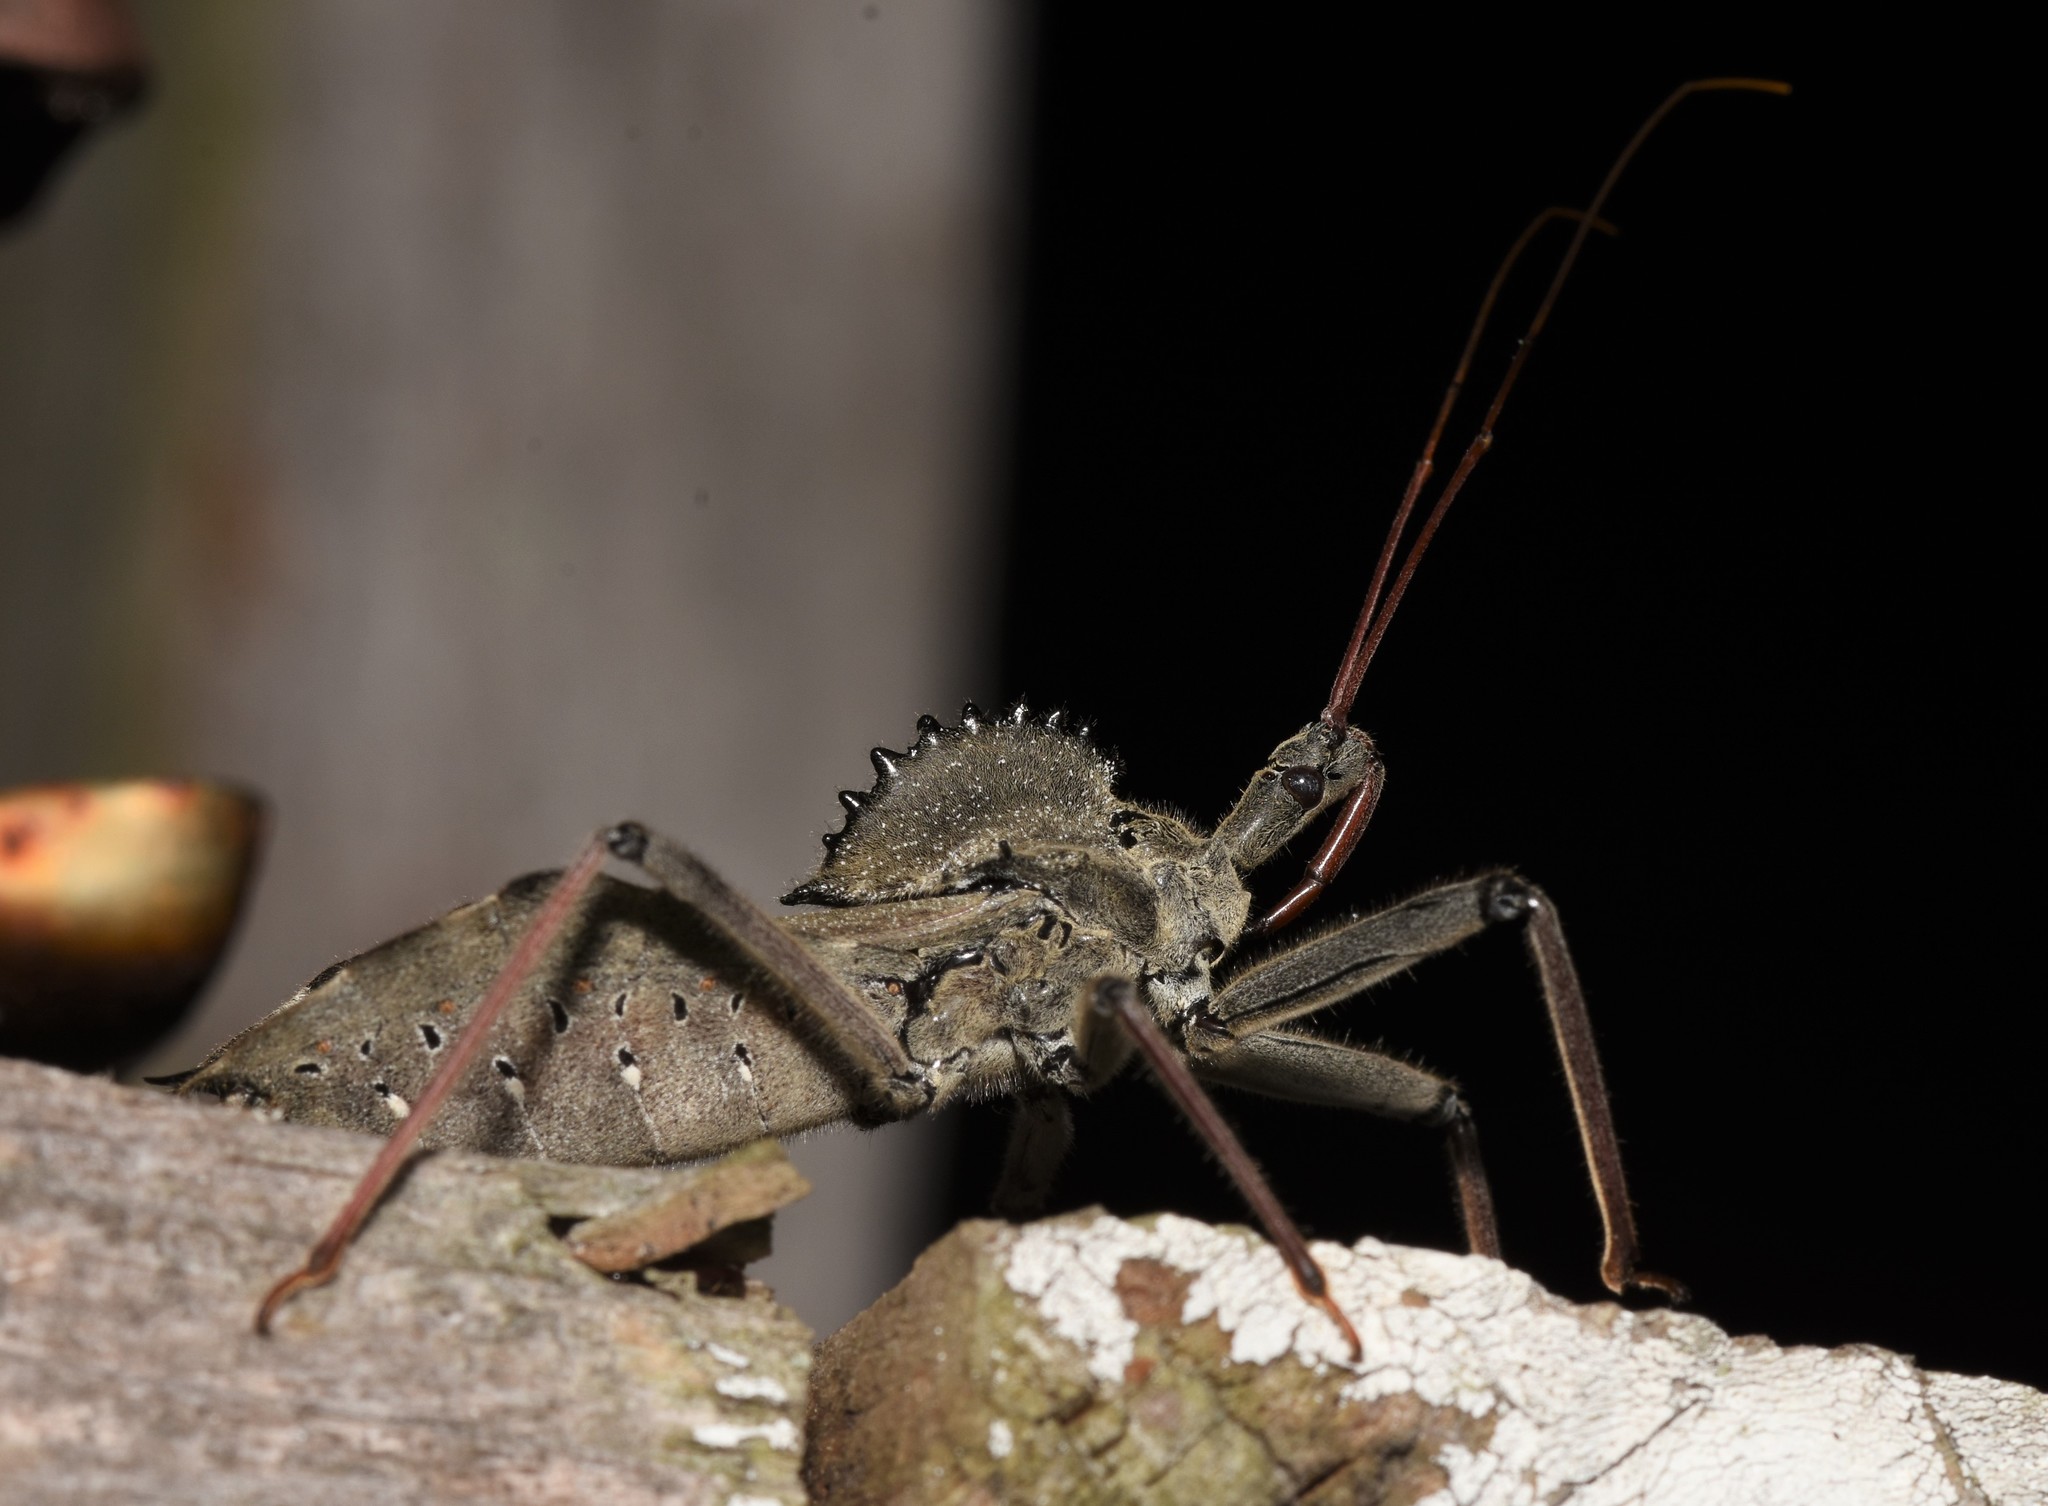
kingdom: Animalia
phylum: Arthropoda
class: Insecta
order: Hemiptera
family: Reduviidae
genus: Arilus
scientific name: Arilus cristatus
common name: North american wheel bug
